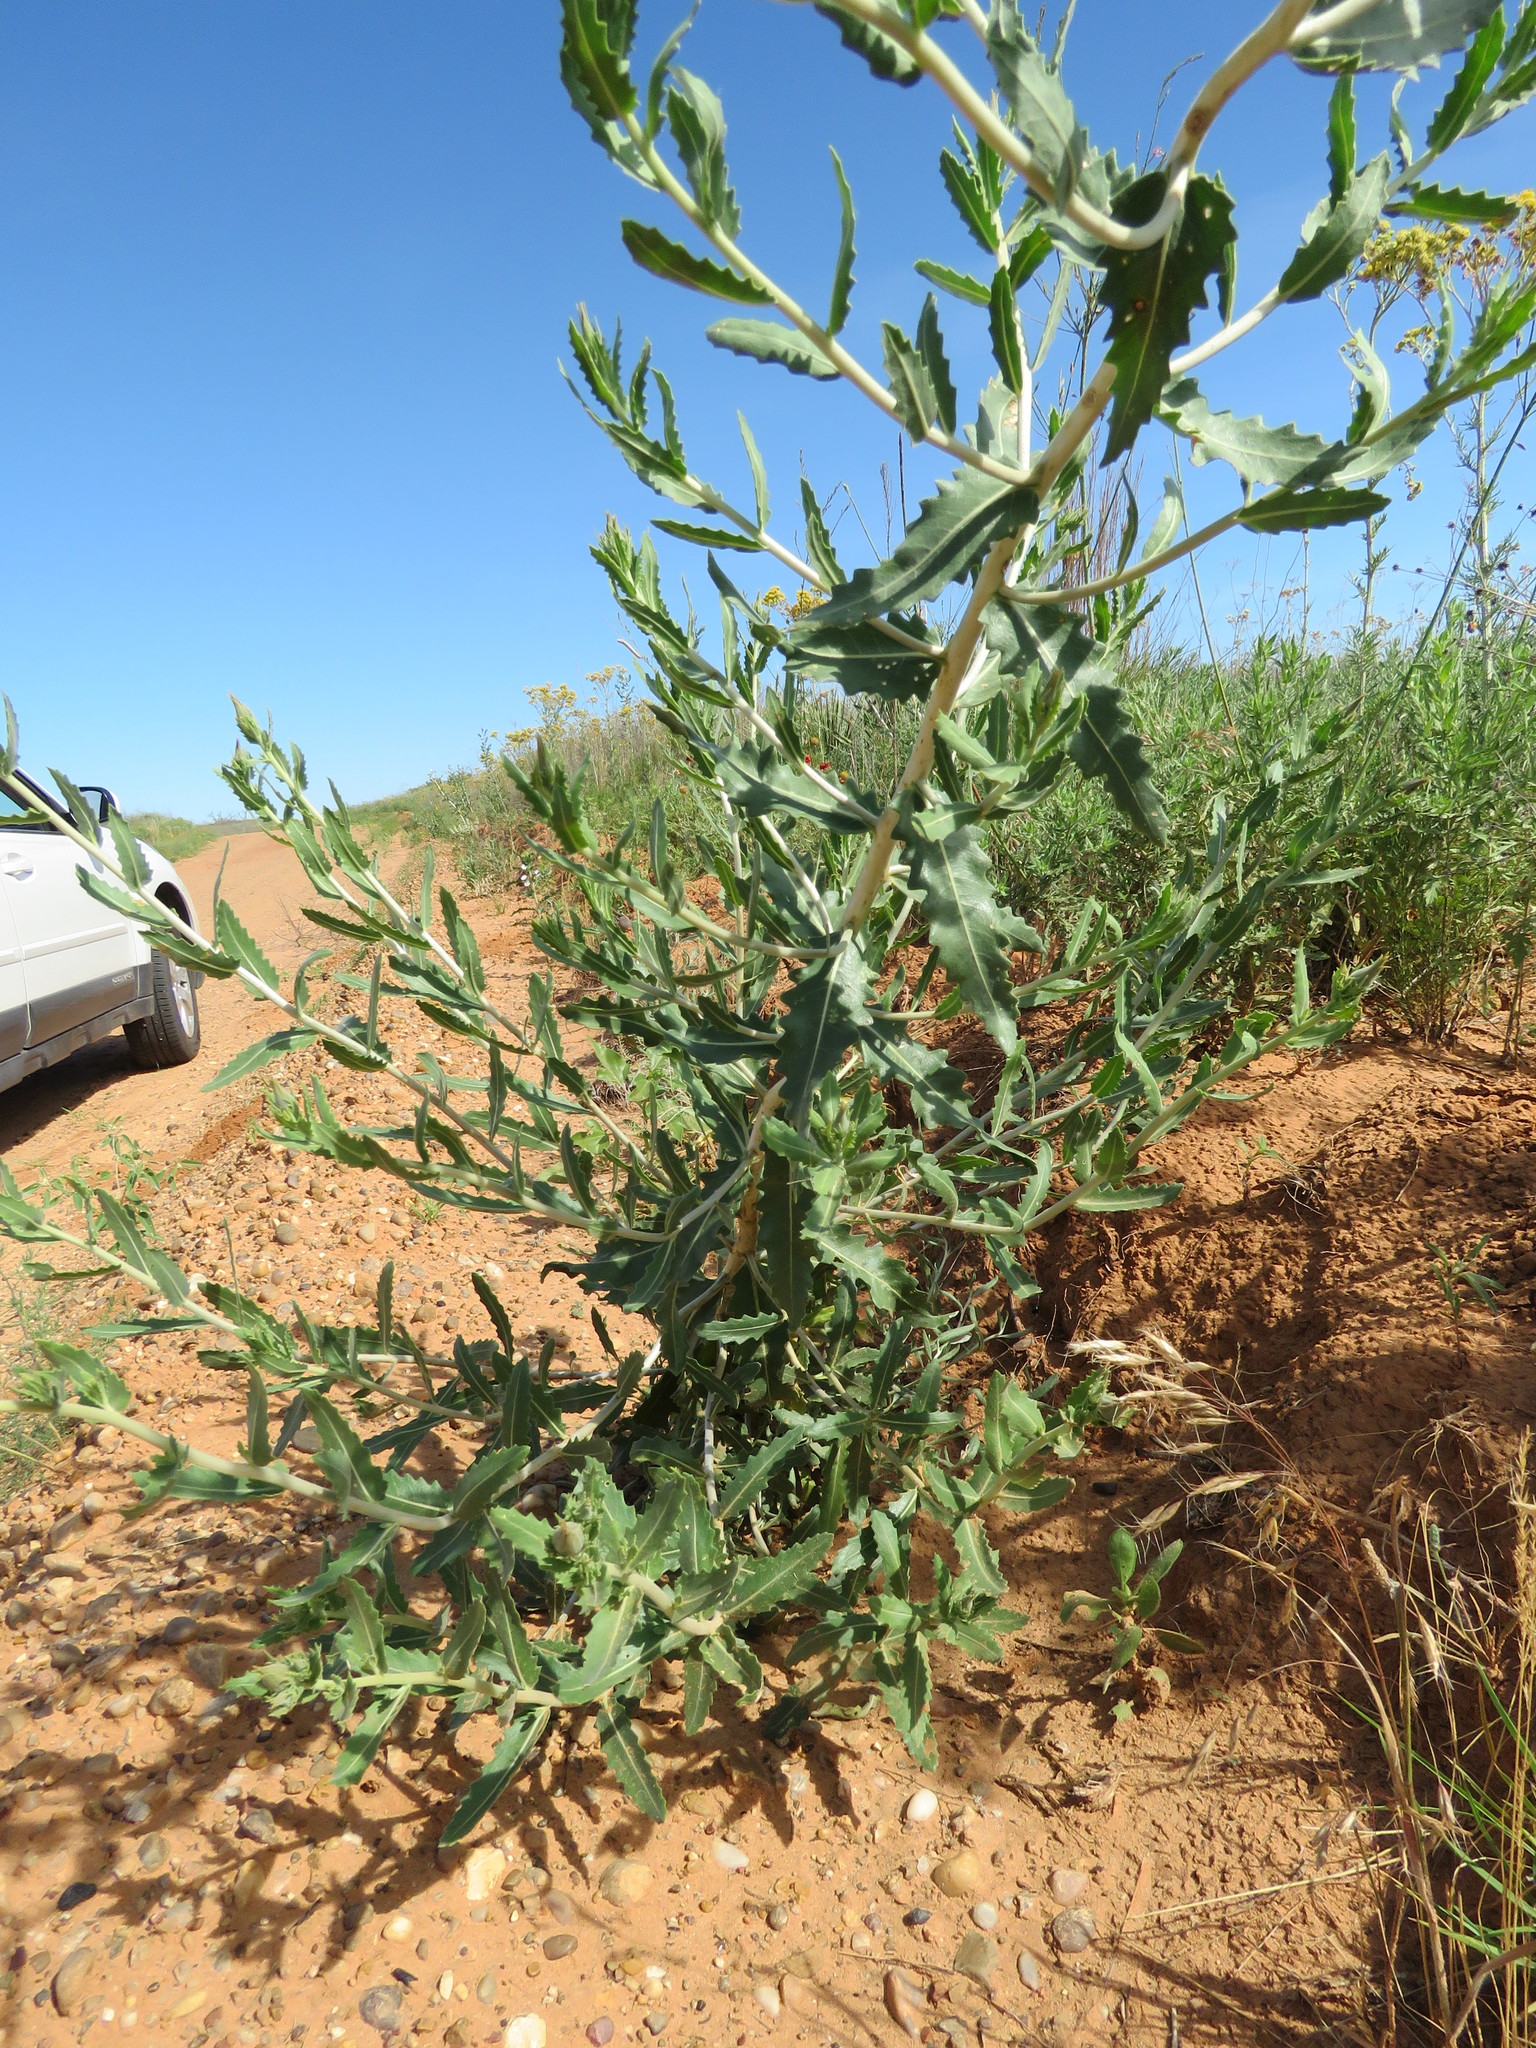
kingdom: Plantae
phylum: Tracheophyta
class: Magnoliopsida
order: Cornales
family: Loasaceae
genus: Mentzelia
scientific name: Mentzelia nuda
